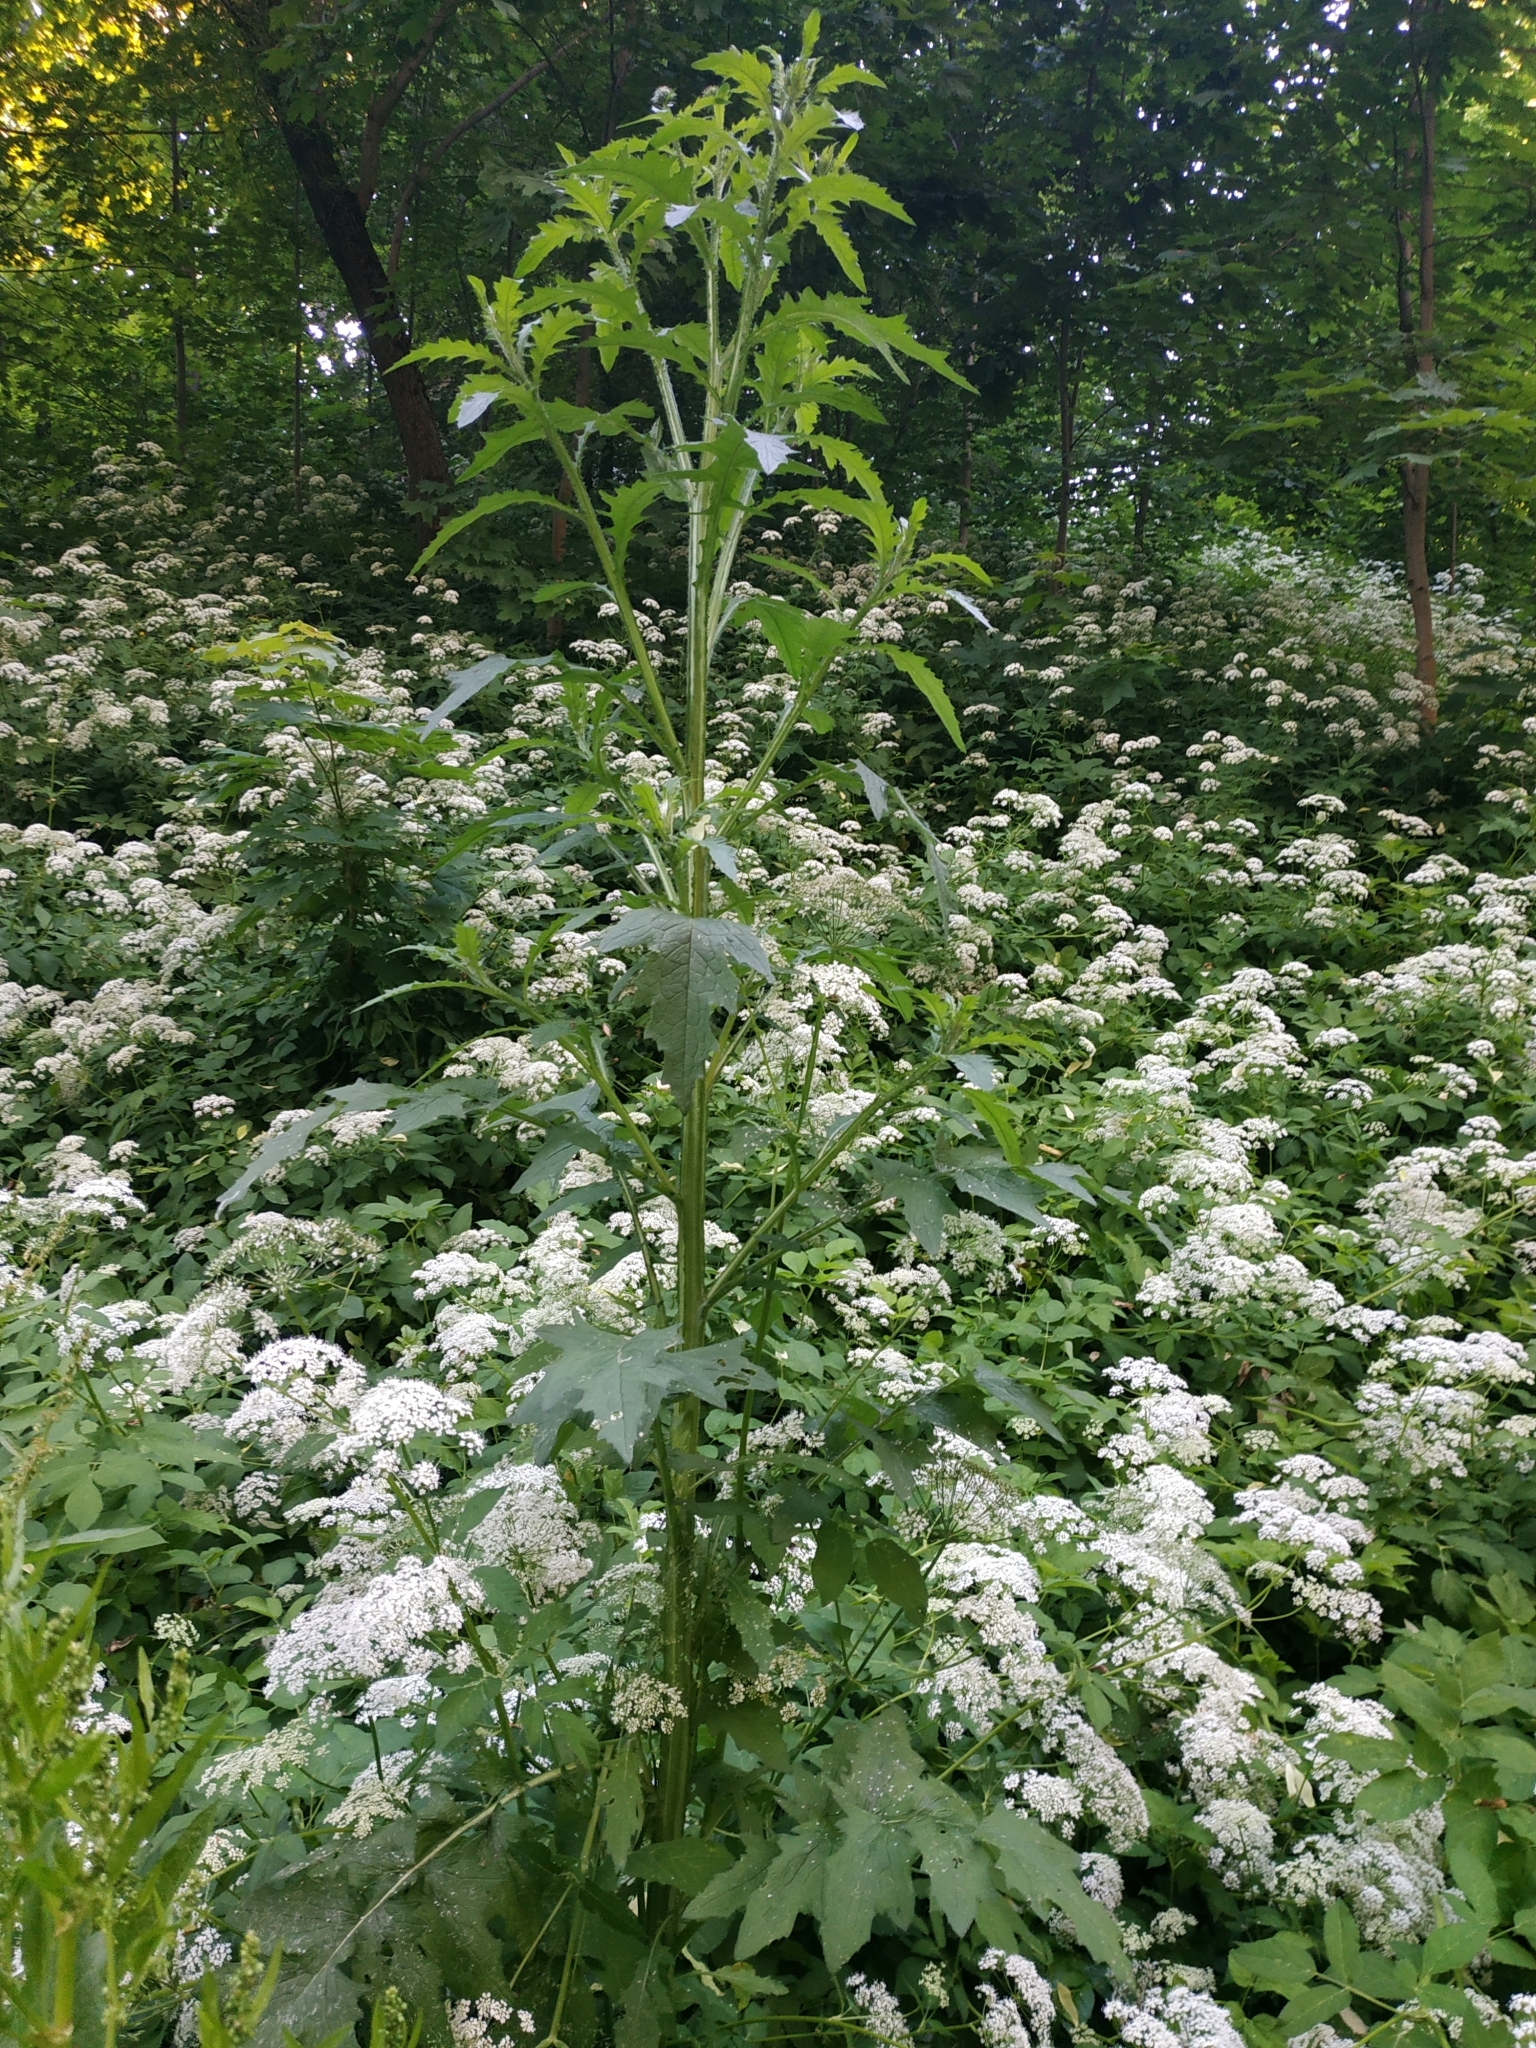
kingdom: Plantae
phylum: Tracheophyta
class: Magnoliopsida
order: Asterales
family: Asteraceae
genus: Carduus
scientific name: Carduus crispus
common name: Welted thistle
